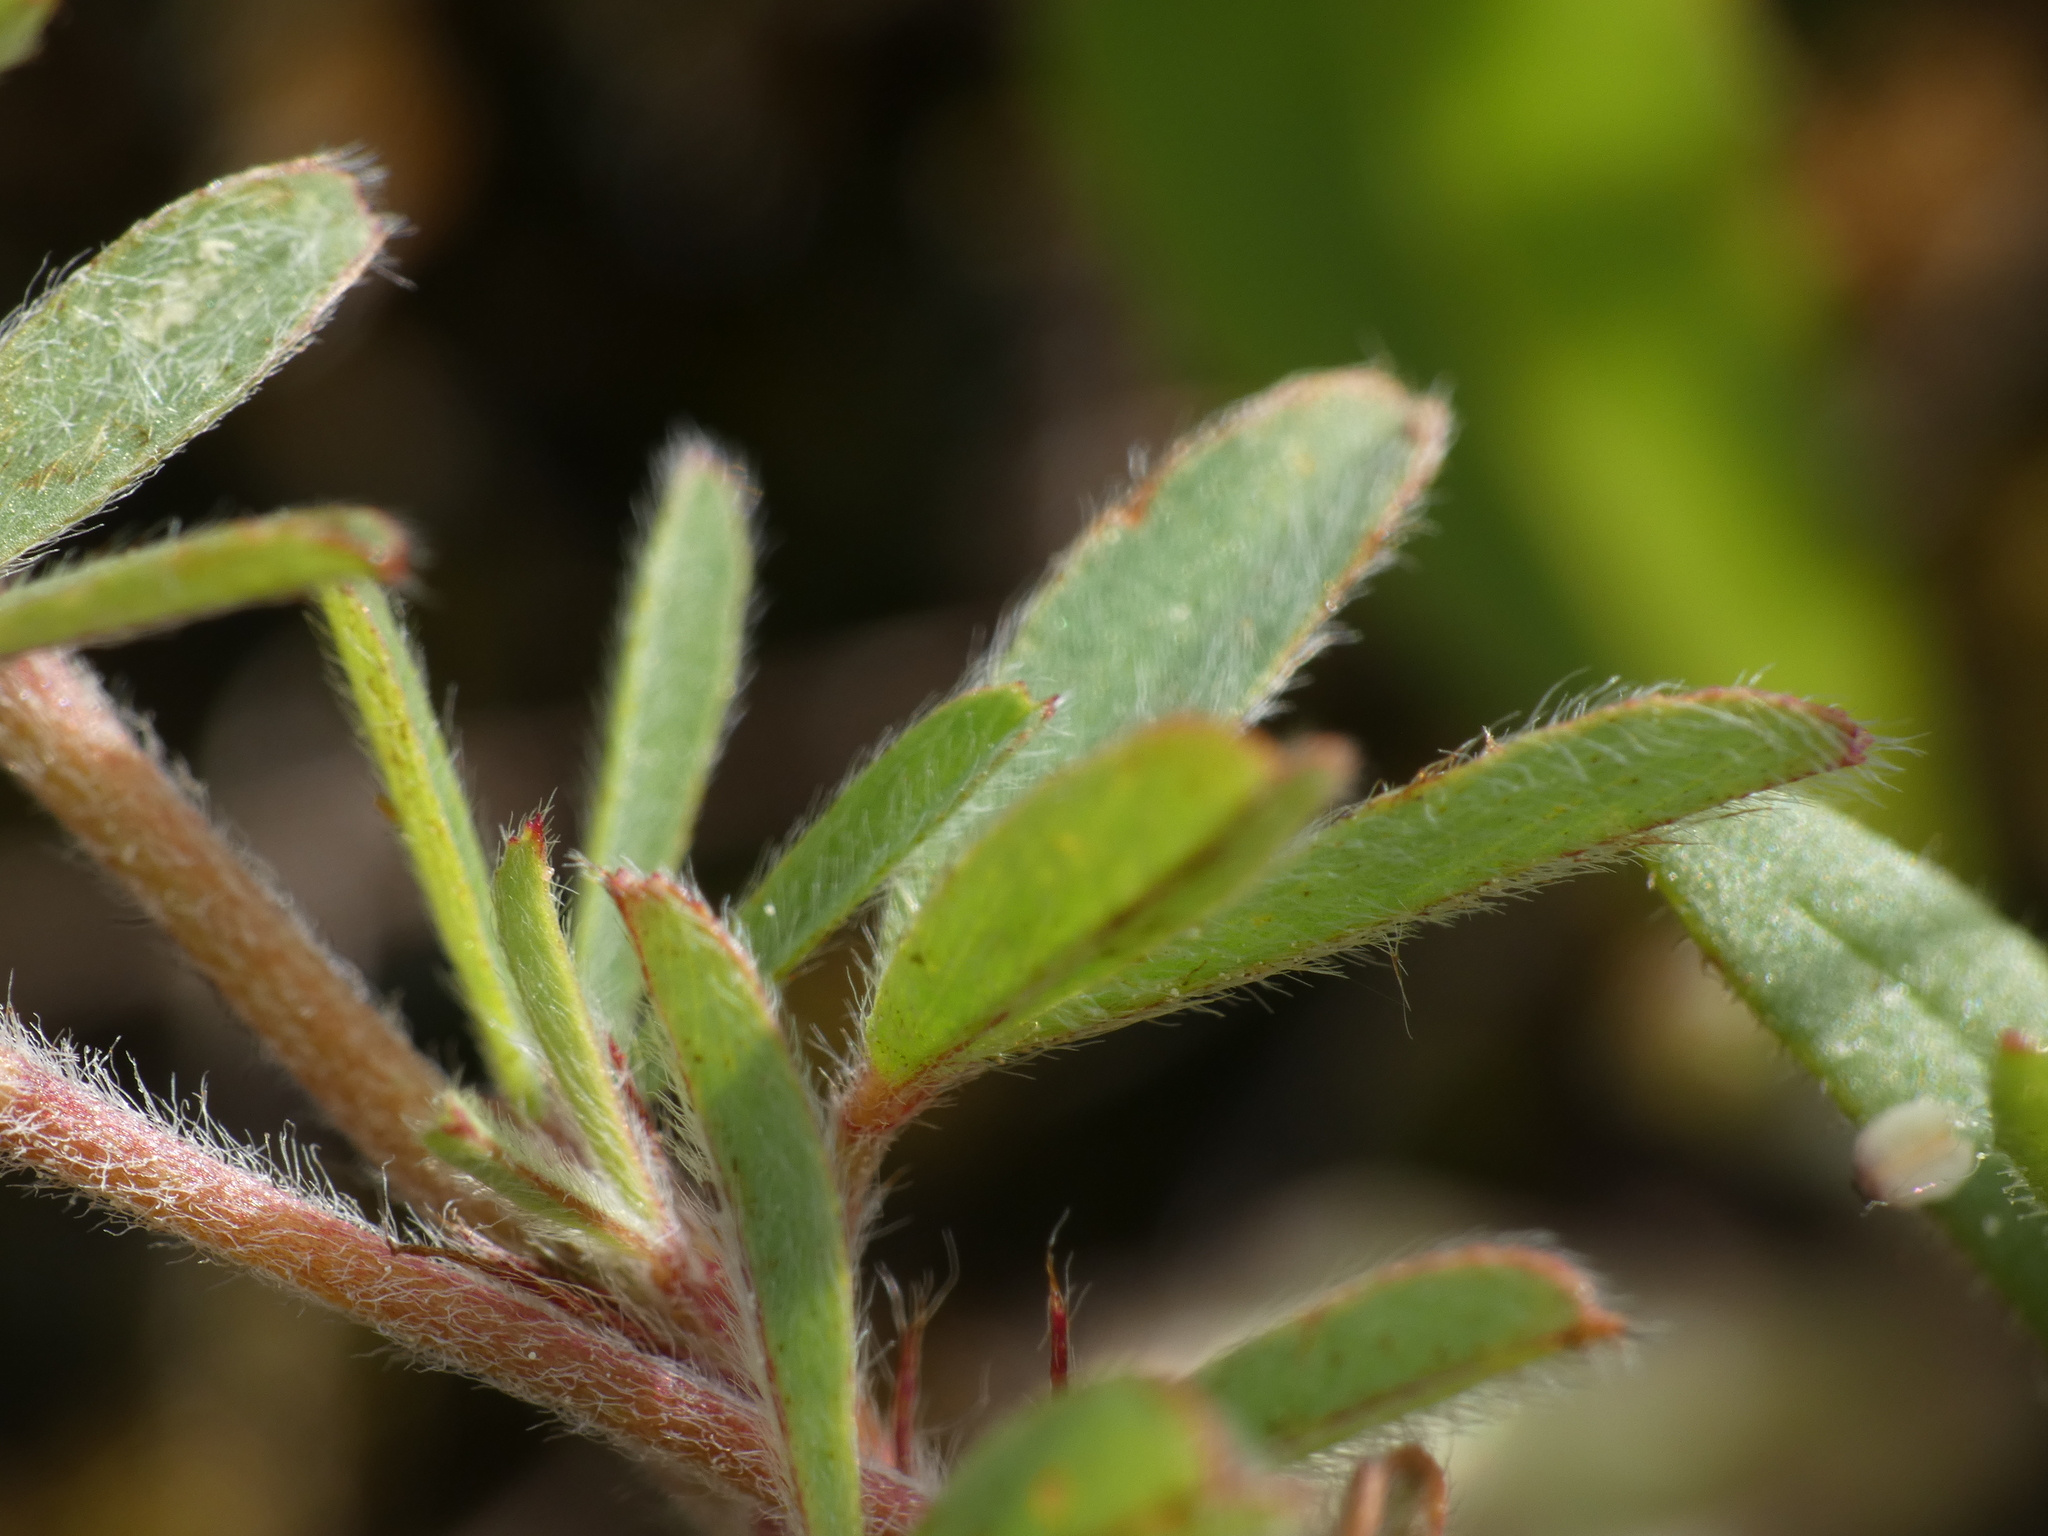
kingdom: Plantae
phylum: Tracheophyta
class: Magnoliopsida
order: Fabales
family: Fabaceae
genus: Trifolium
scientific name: Trifolium arvense
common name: Hare's-foot clover
